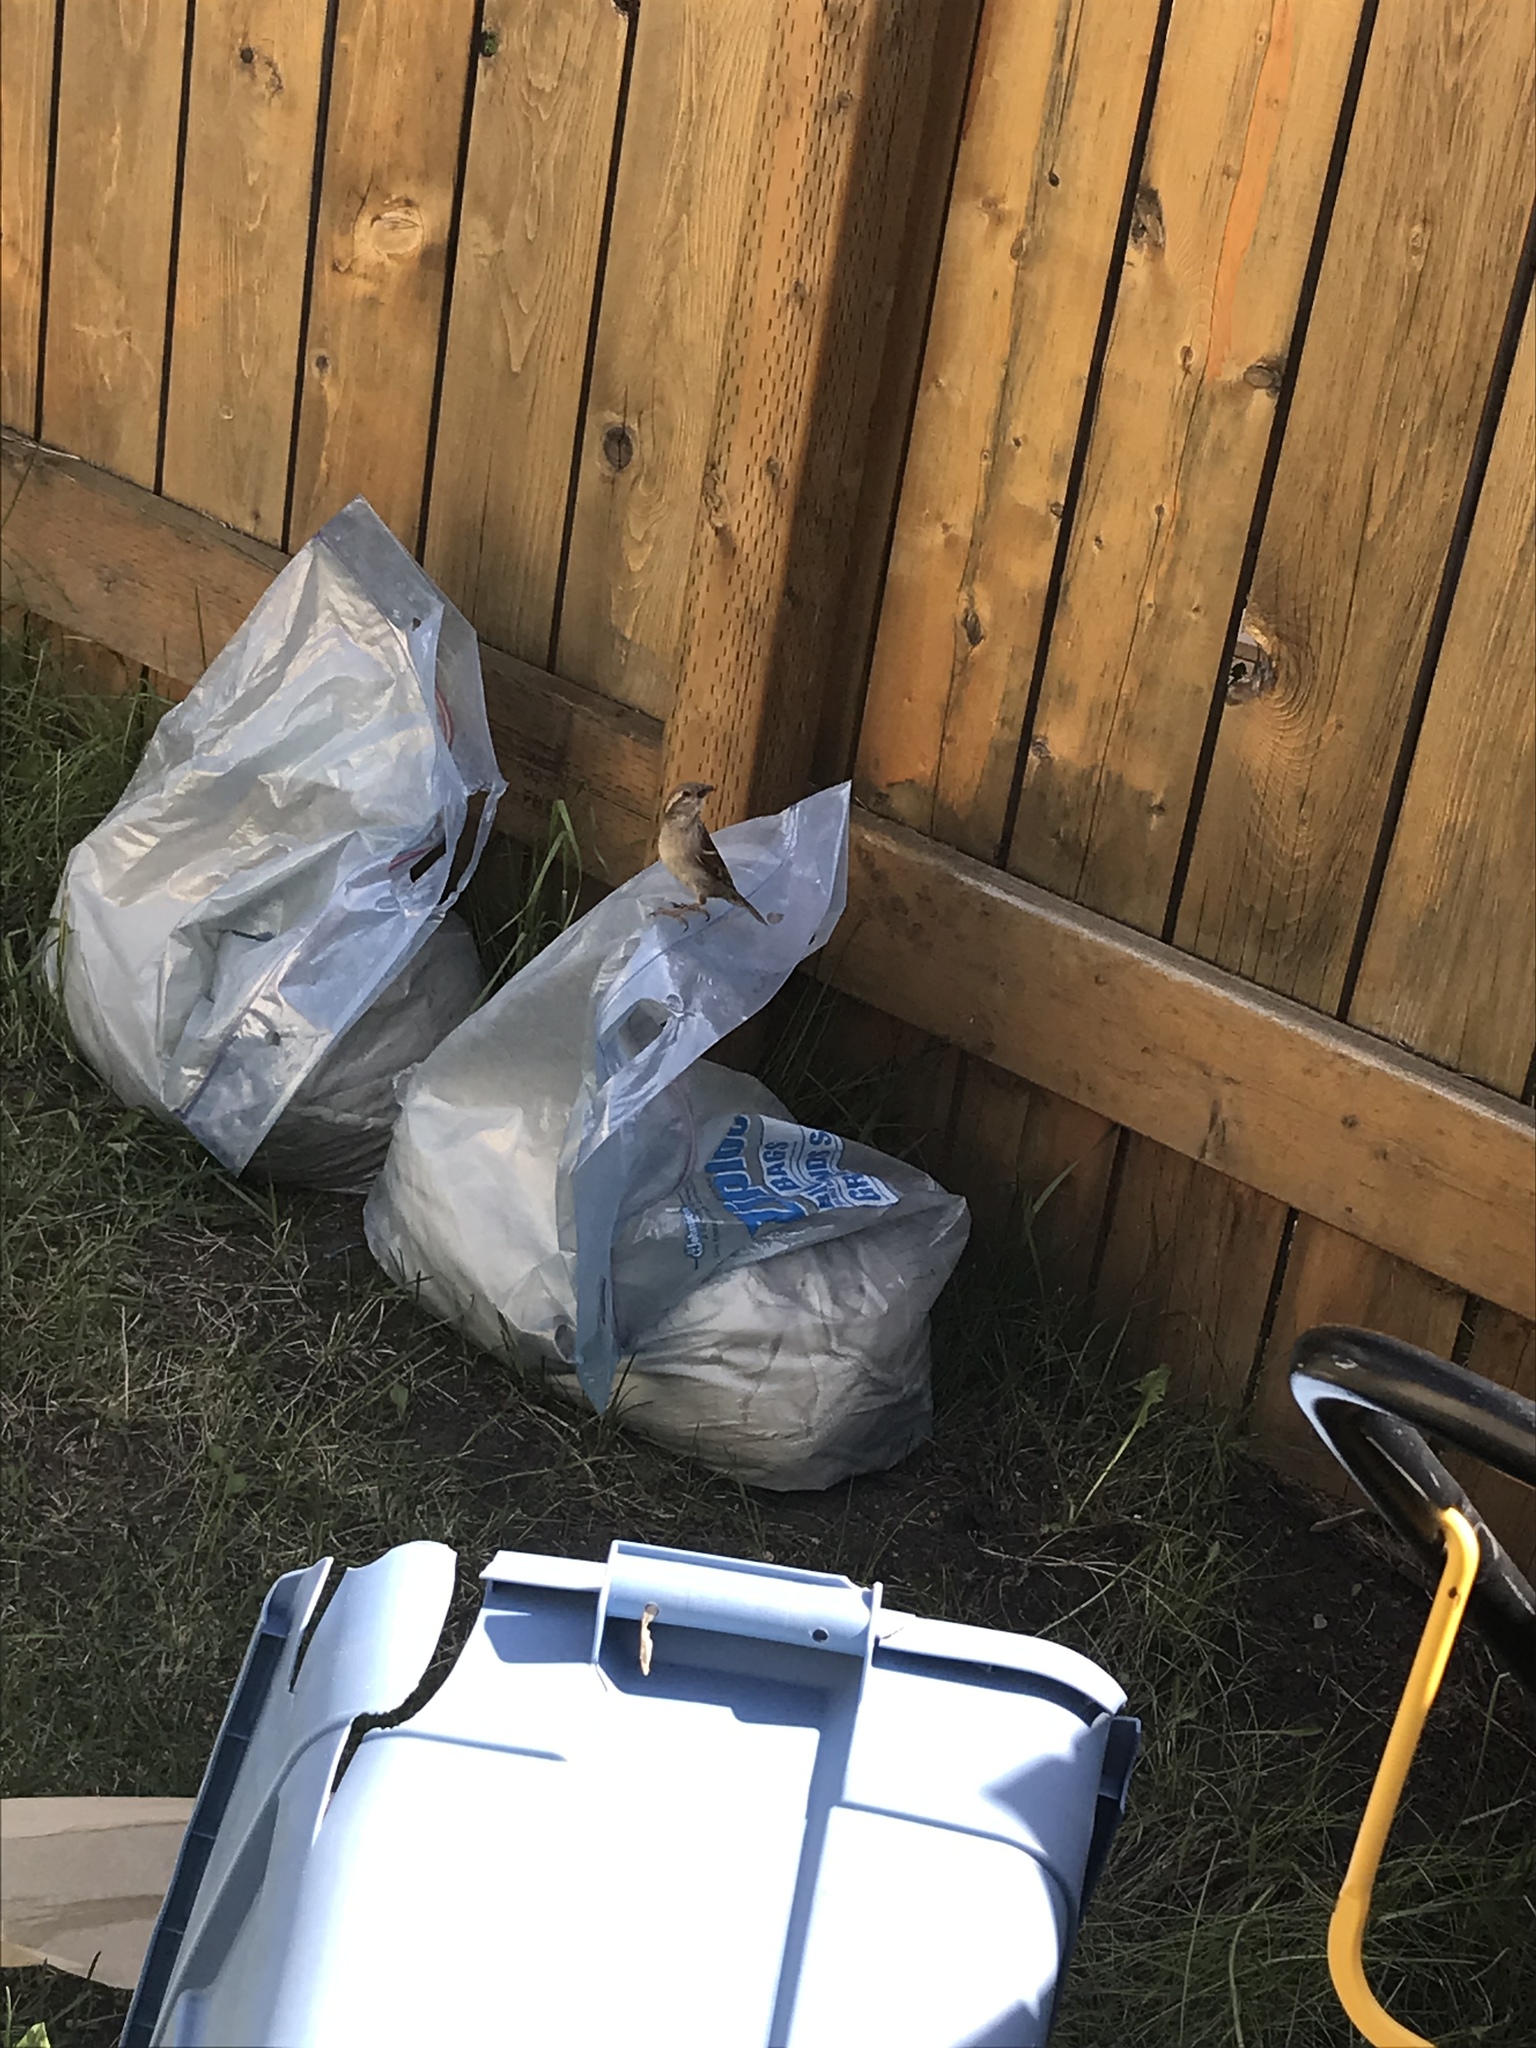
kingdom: Animalia
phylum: Chordata
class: Aves
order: Passeriformes
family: Passeridae
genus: Passer
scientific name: Passer domesticus
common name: House sparrow
